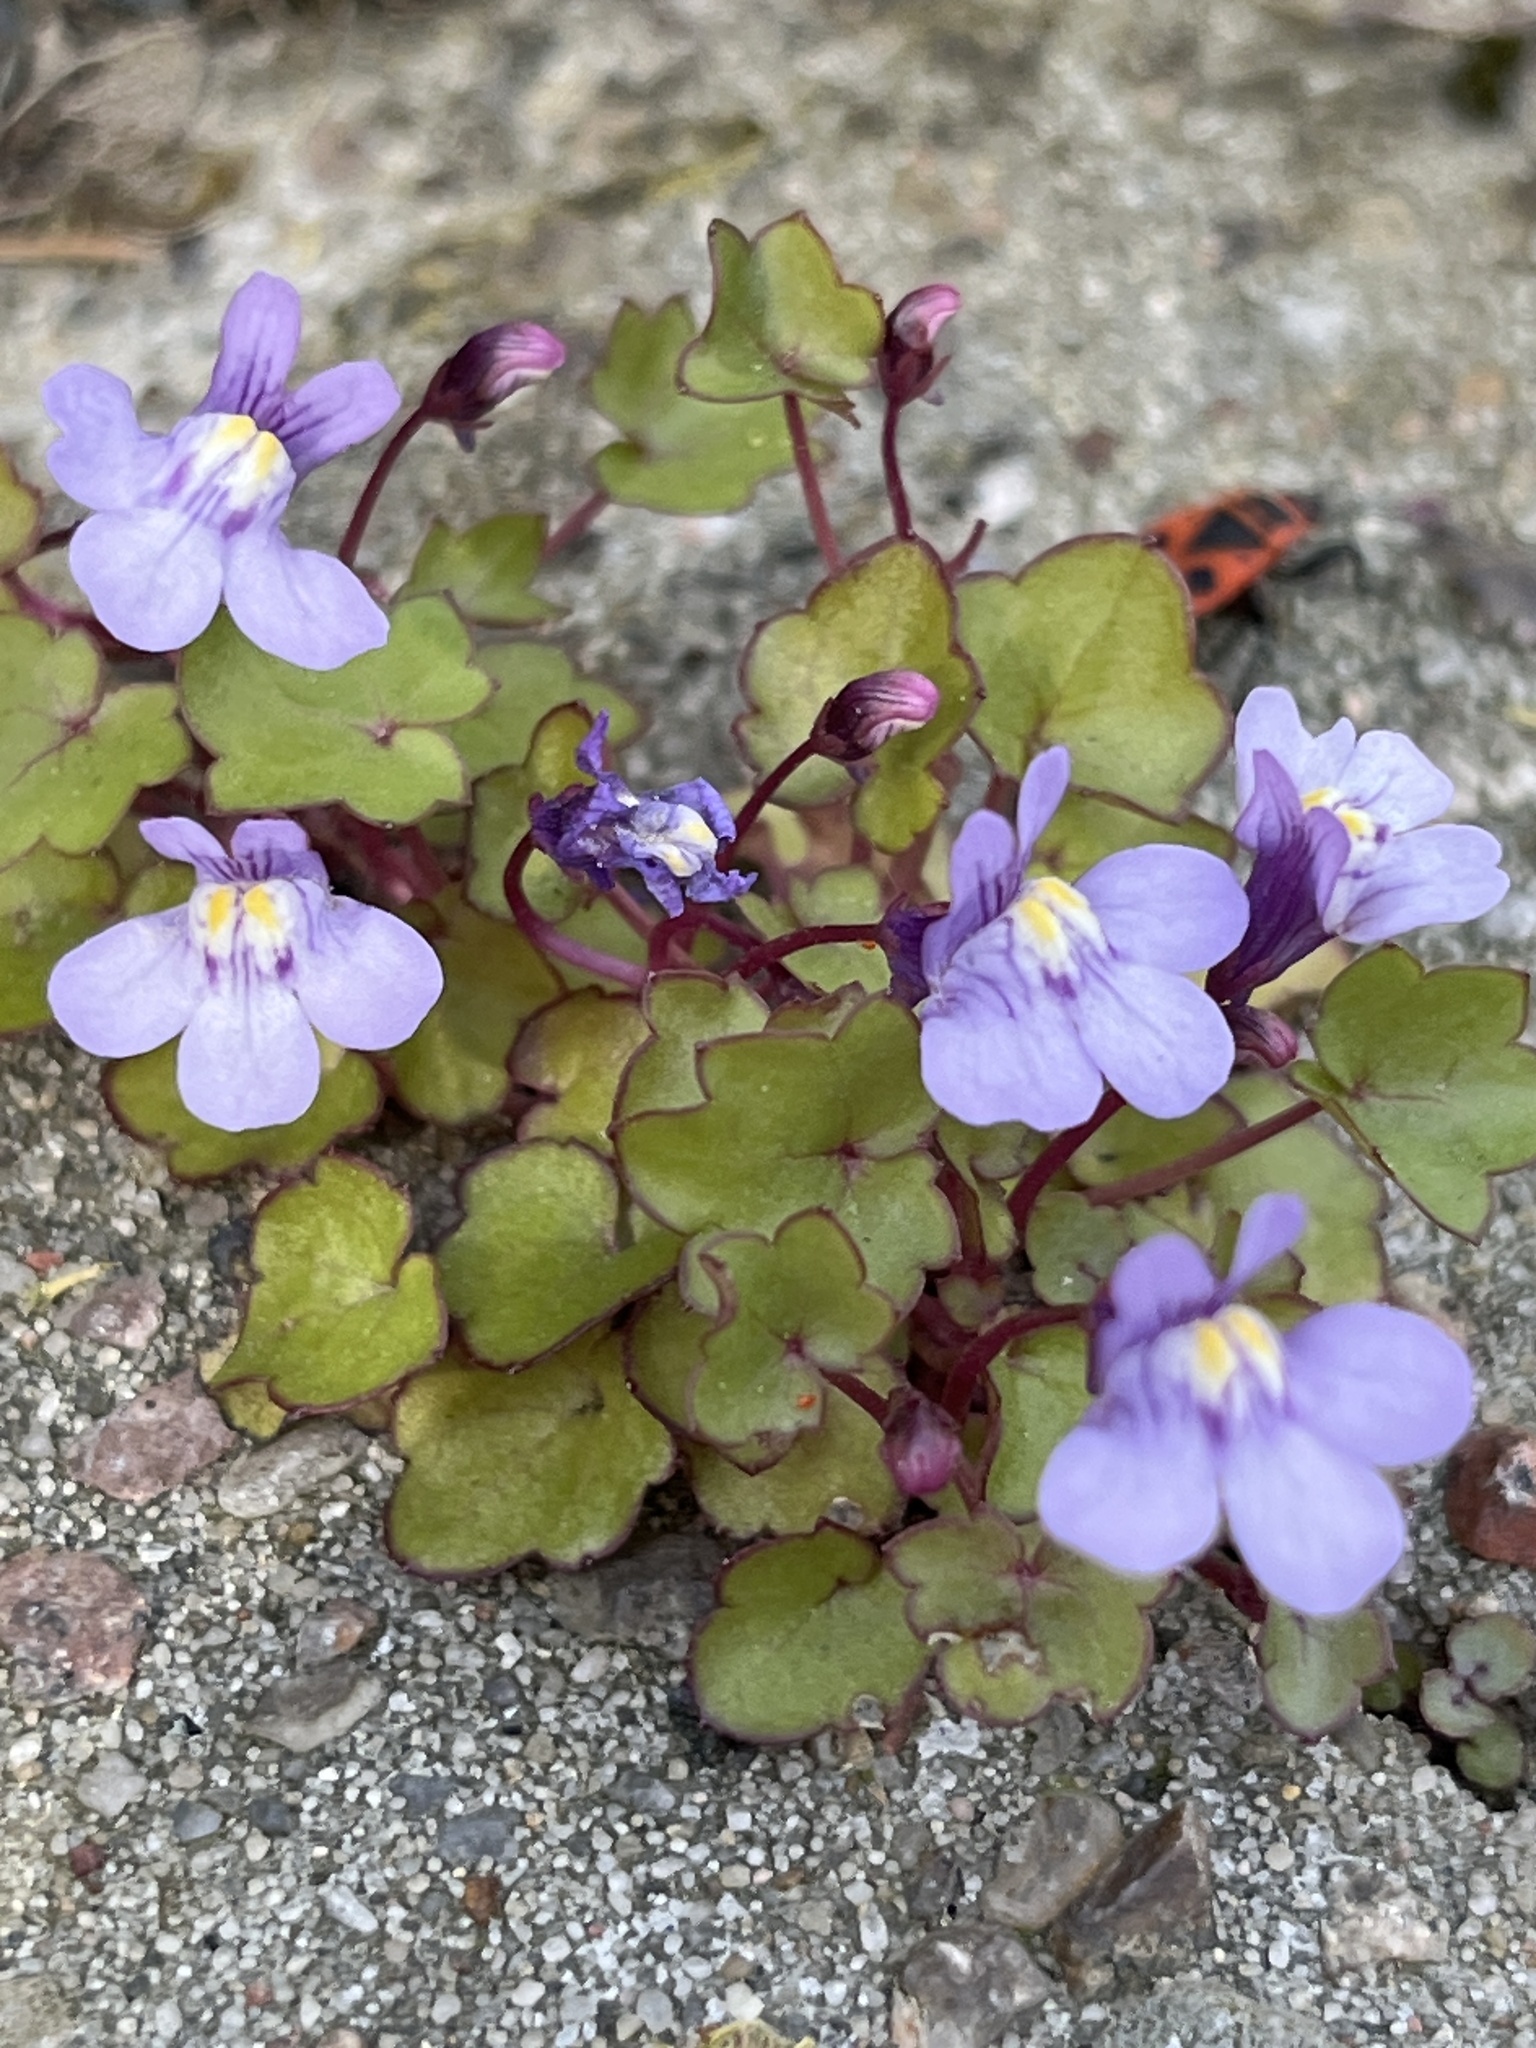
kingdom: Plantae
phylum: Tracheophyta
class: Magnoliopsida
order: Lamiales
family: Plantaginaceae
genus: Cymbalaria
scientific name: Cymbalaria muralis
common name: Ivy-leaved toadflax
